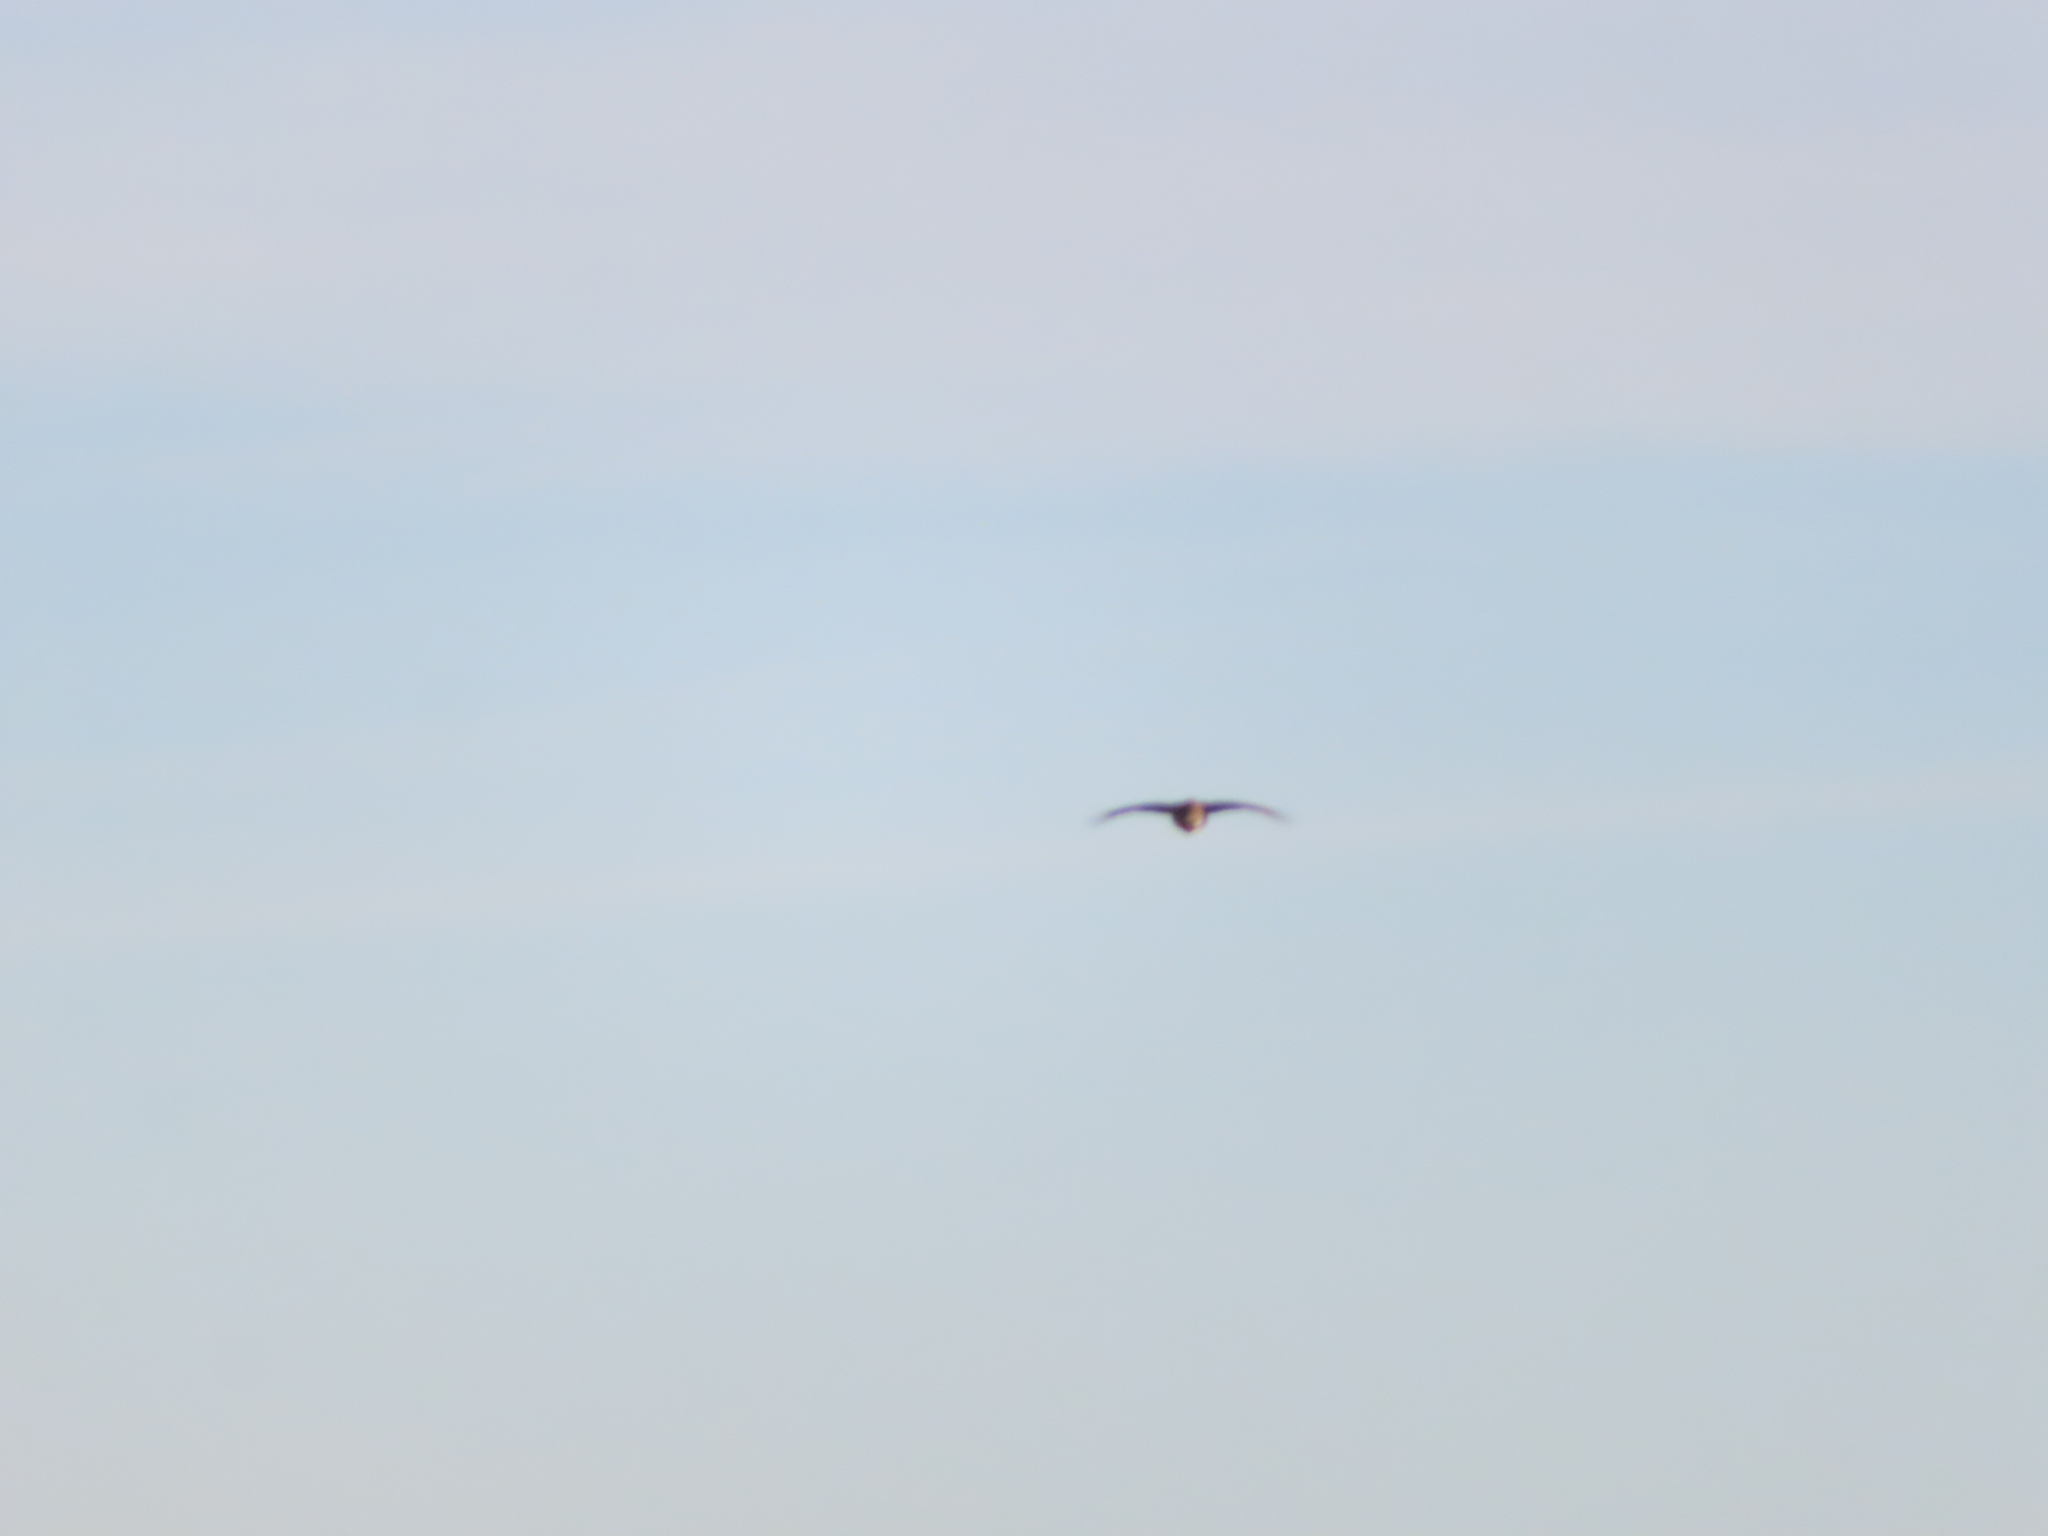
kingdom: Animalia
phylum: Chordata
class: Aves
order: Galliformes
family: Phasianidae
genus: Tympanuchus
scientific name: Tympanuchus phasianellus
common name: Sharp-tailed grouse
